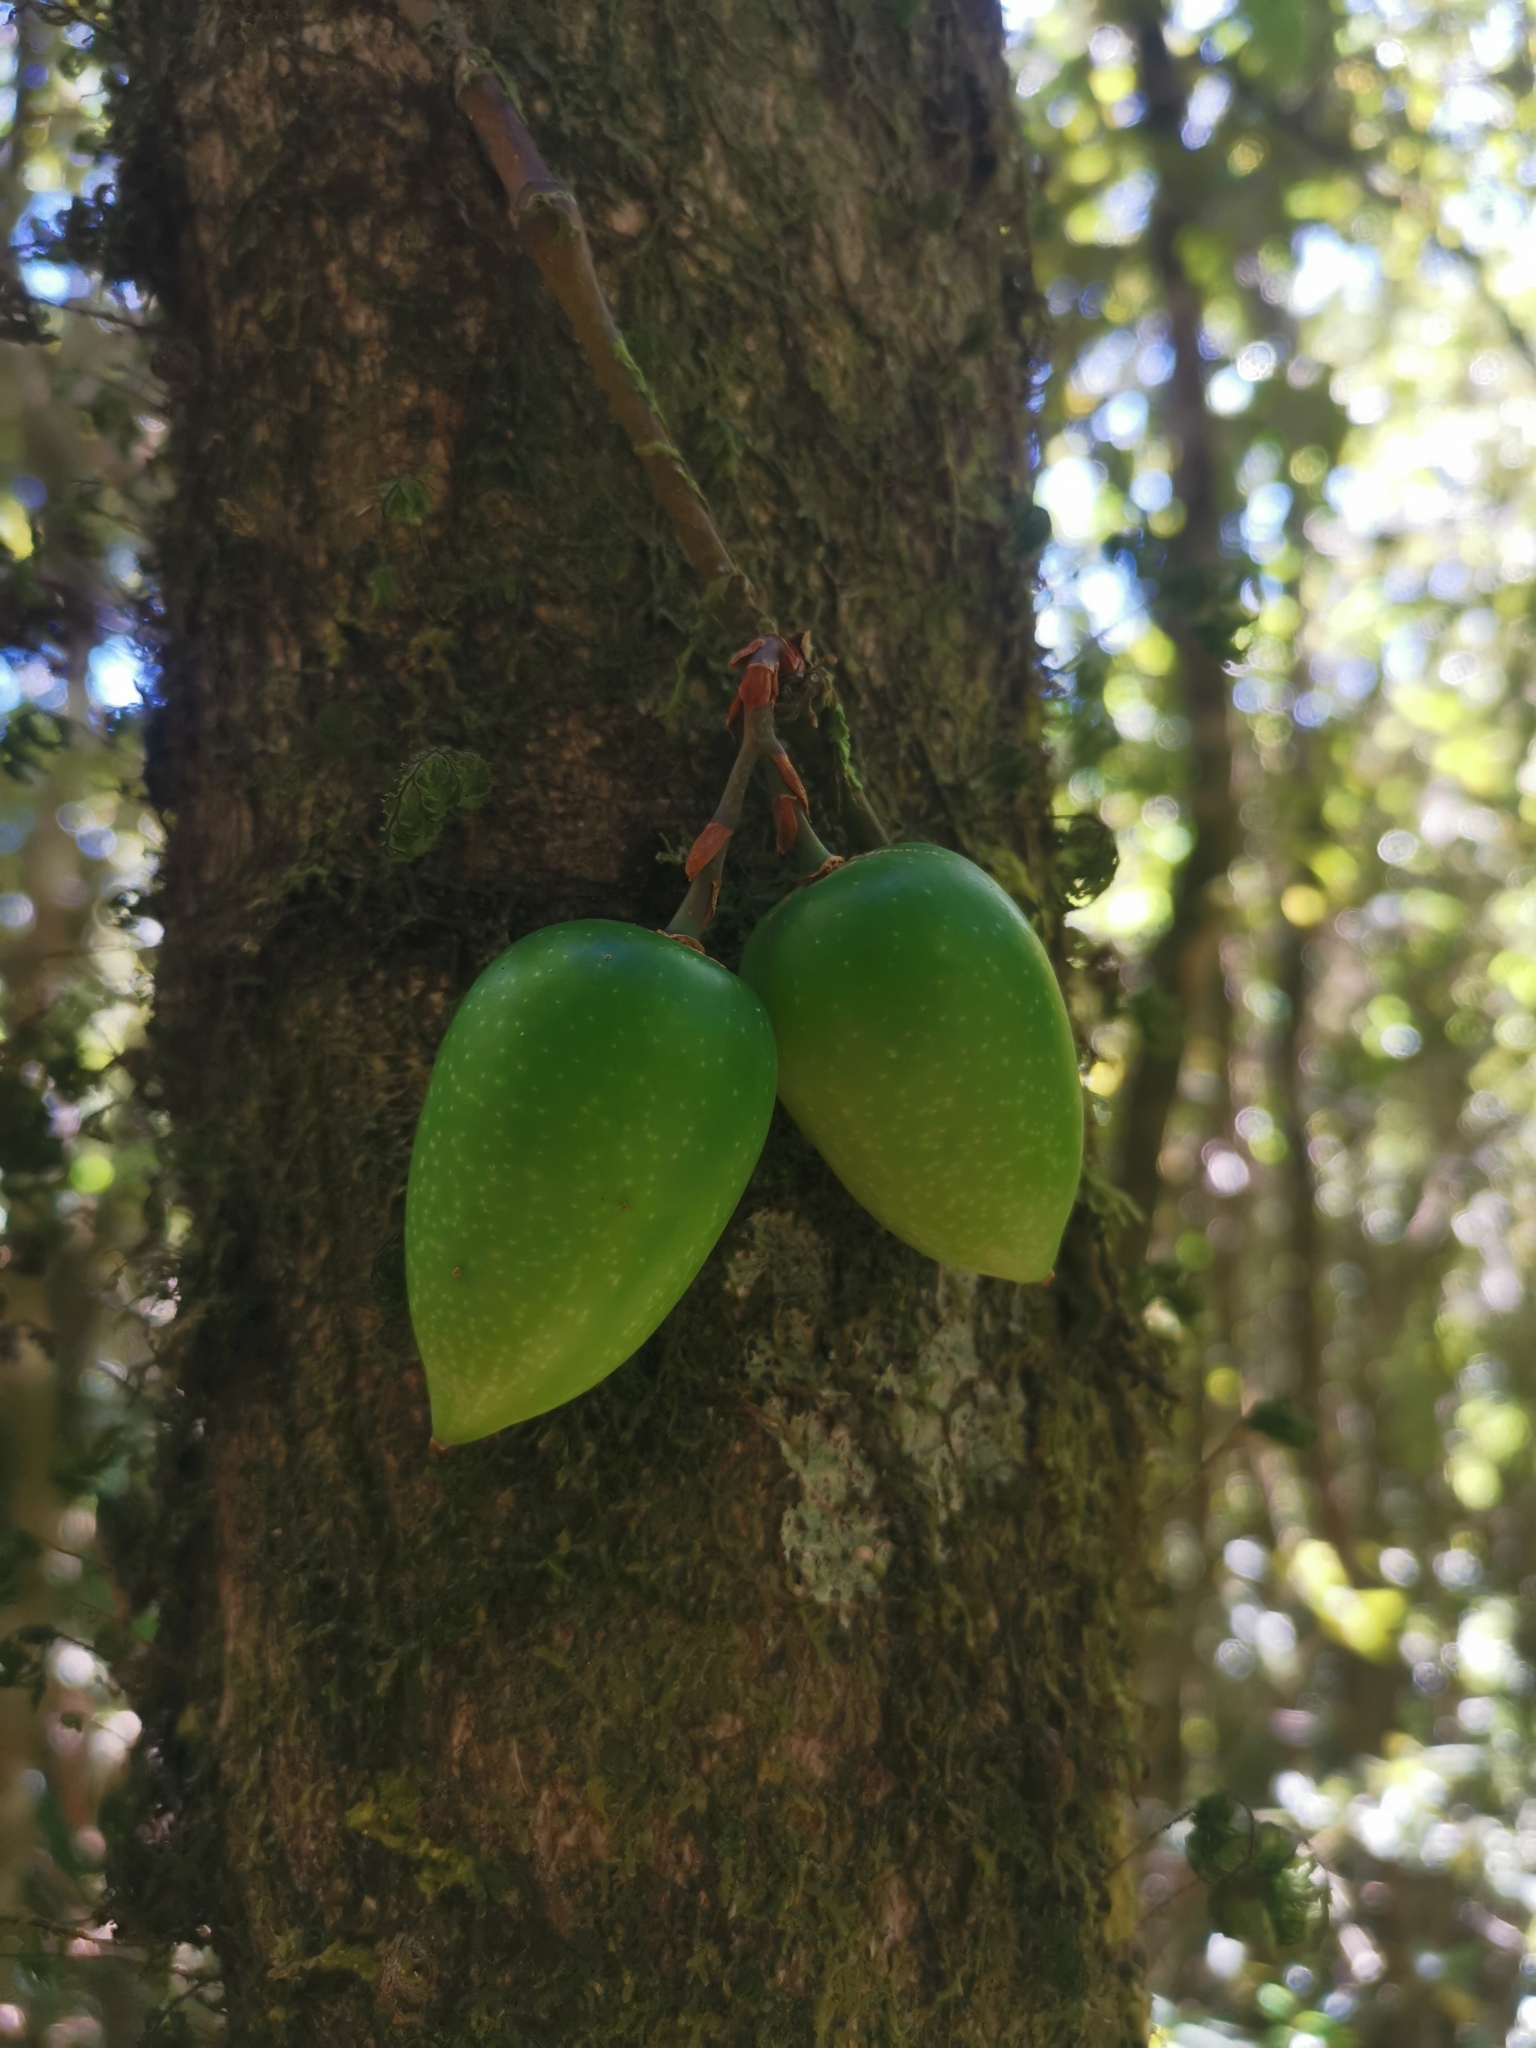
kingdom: Plantae
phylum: Tracheophyta
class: Liliopsida
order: Liliales
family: Philesiaceae
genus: Lapageria
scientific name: Lapageria rosea
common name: Chilean-bellflower
